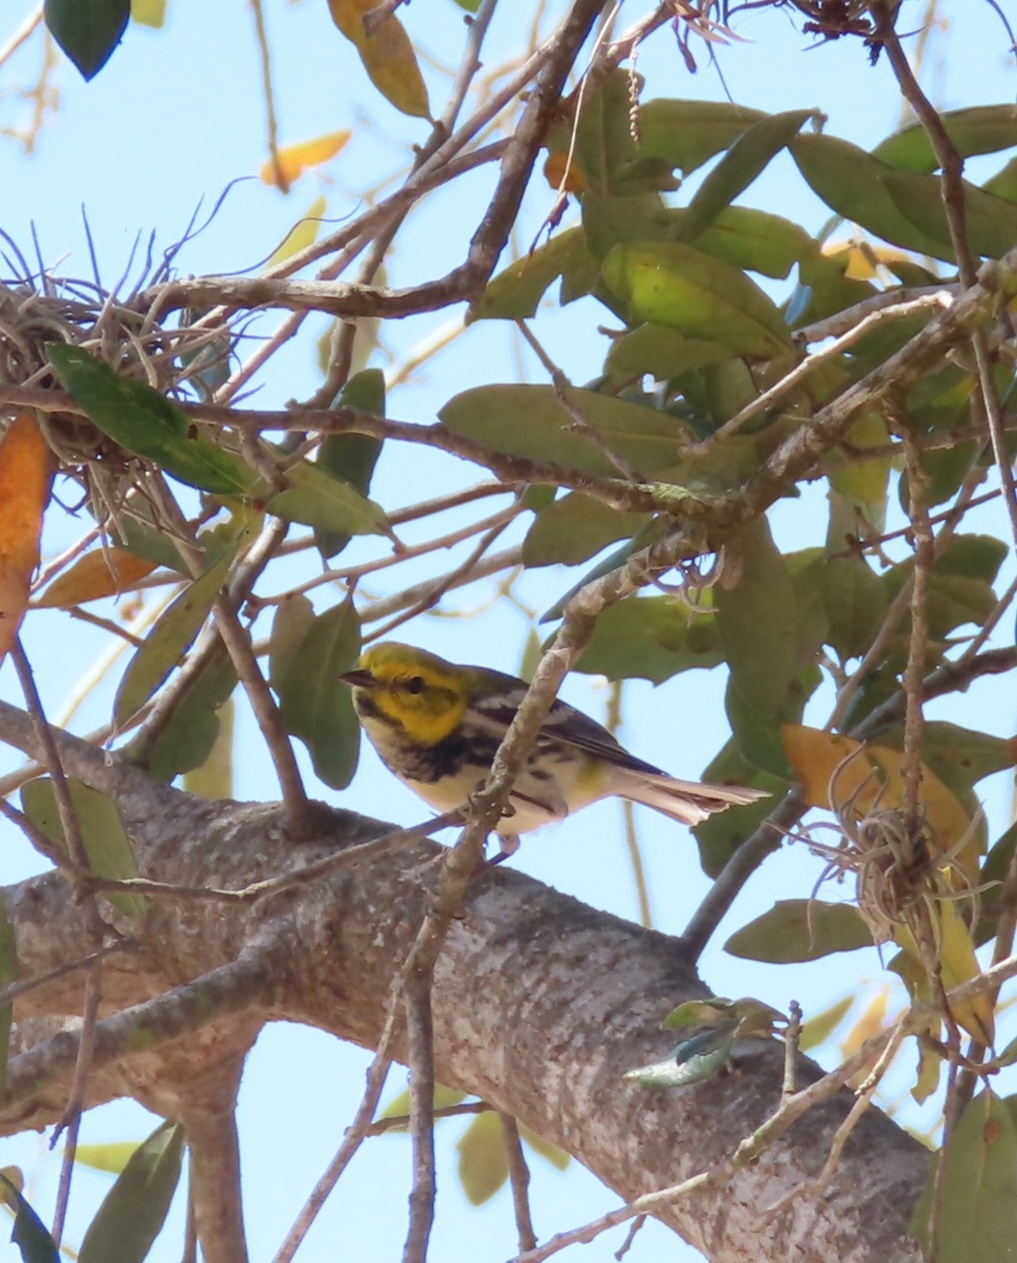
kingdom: Animalia
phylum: Chordata
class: Aves
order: Passeriformes
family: Parulidae
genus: Setophaga
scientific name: Setophaga virens
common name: Black-throated green warbler
